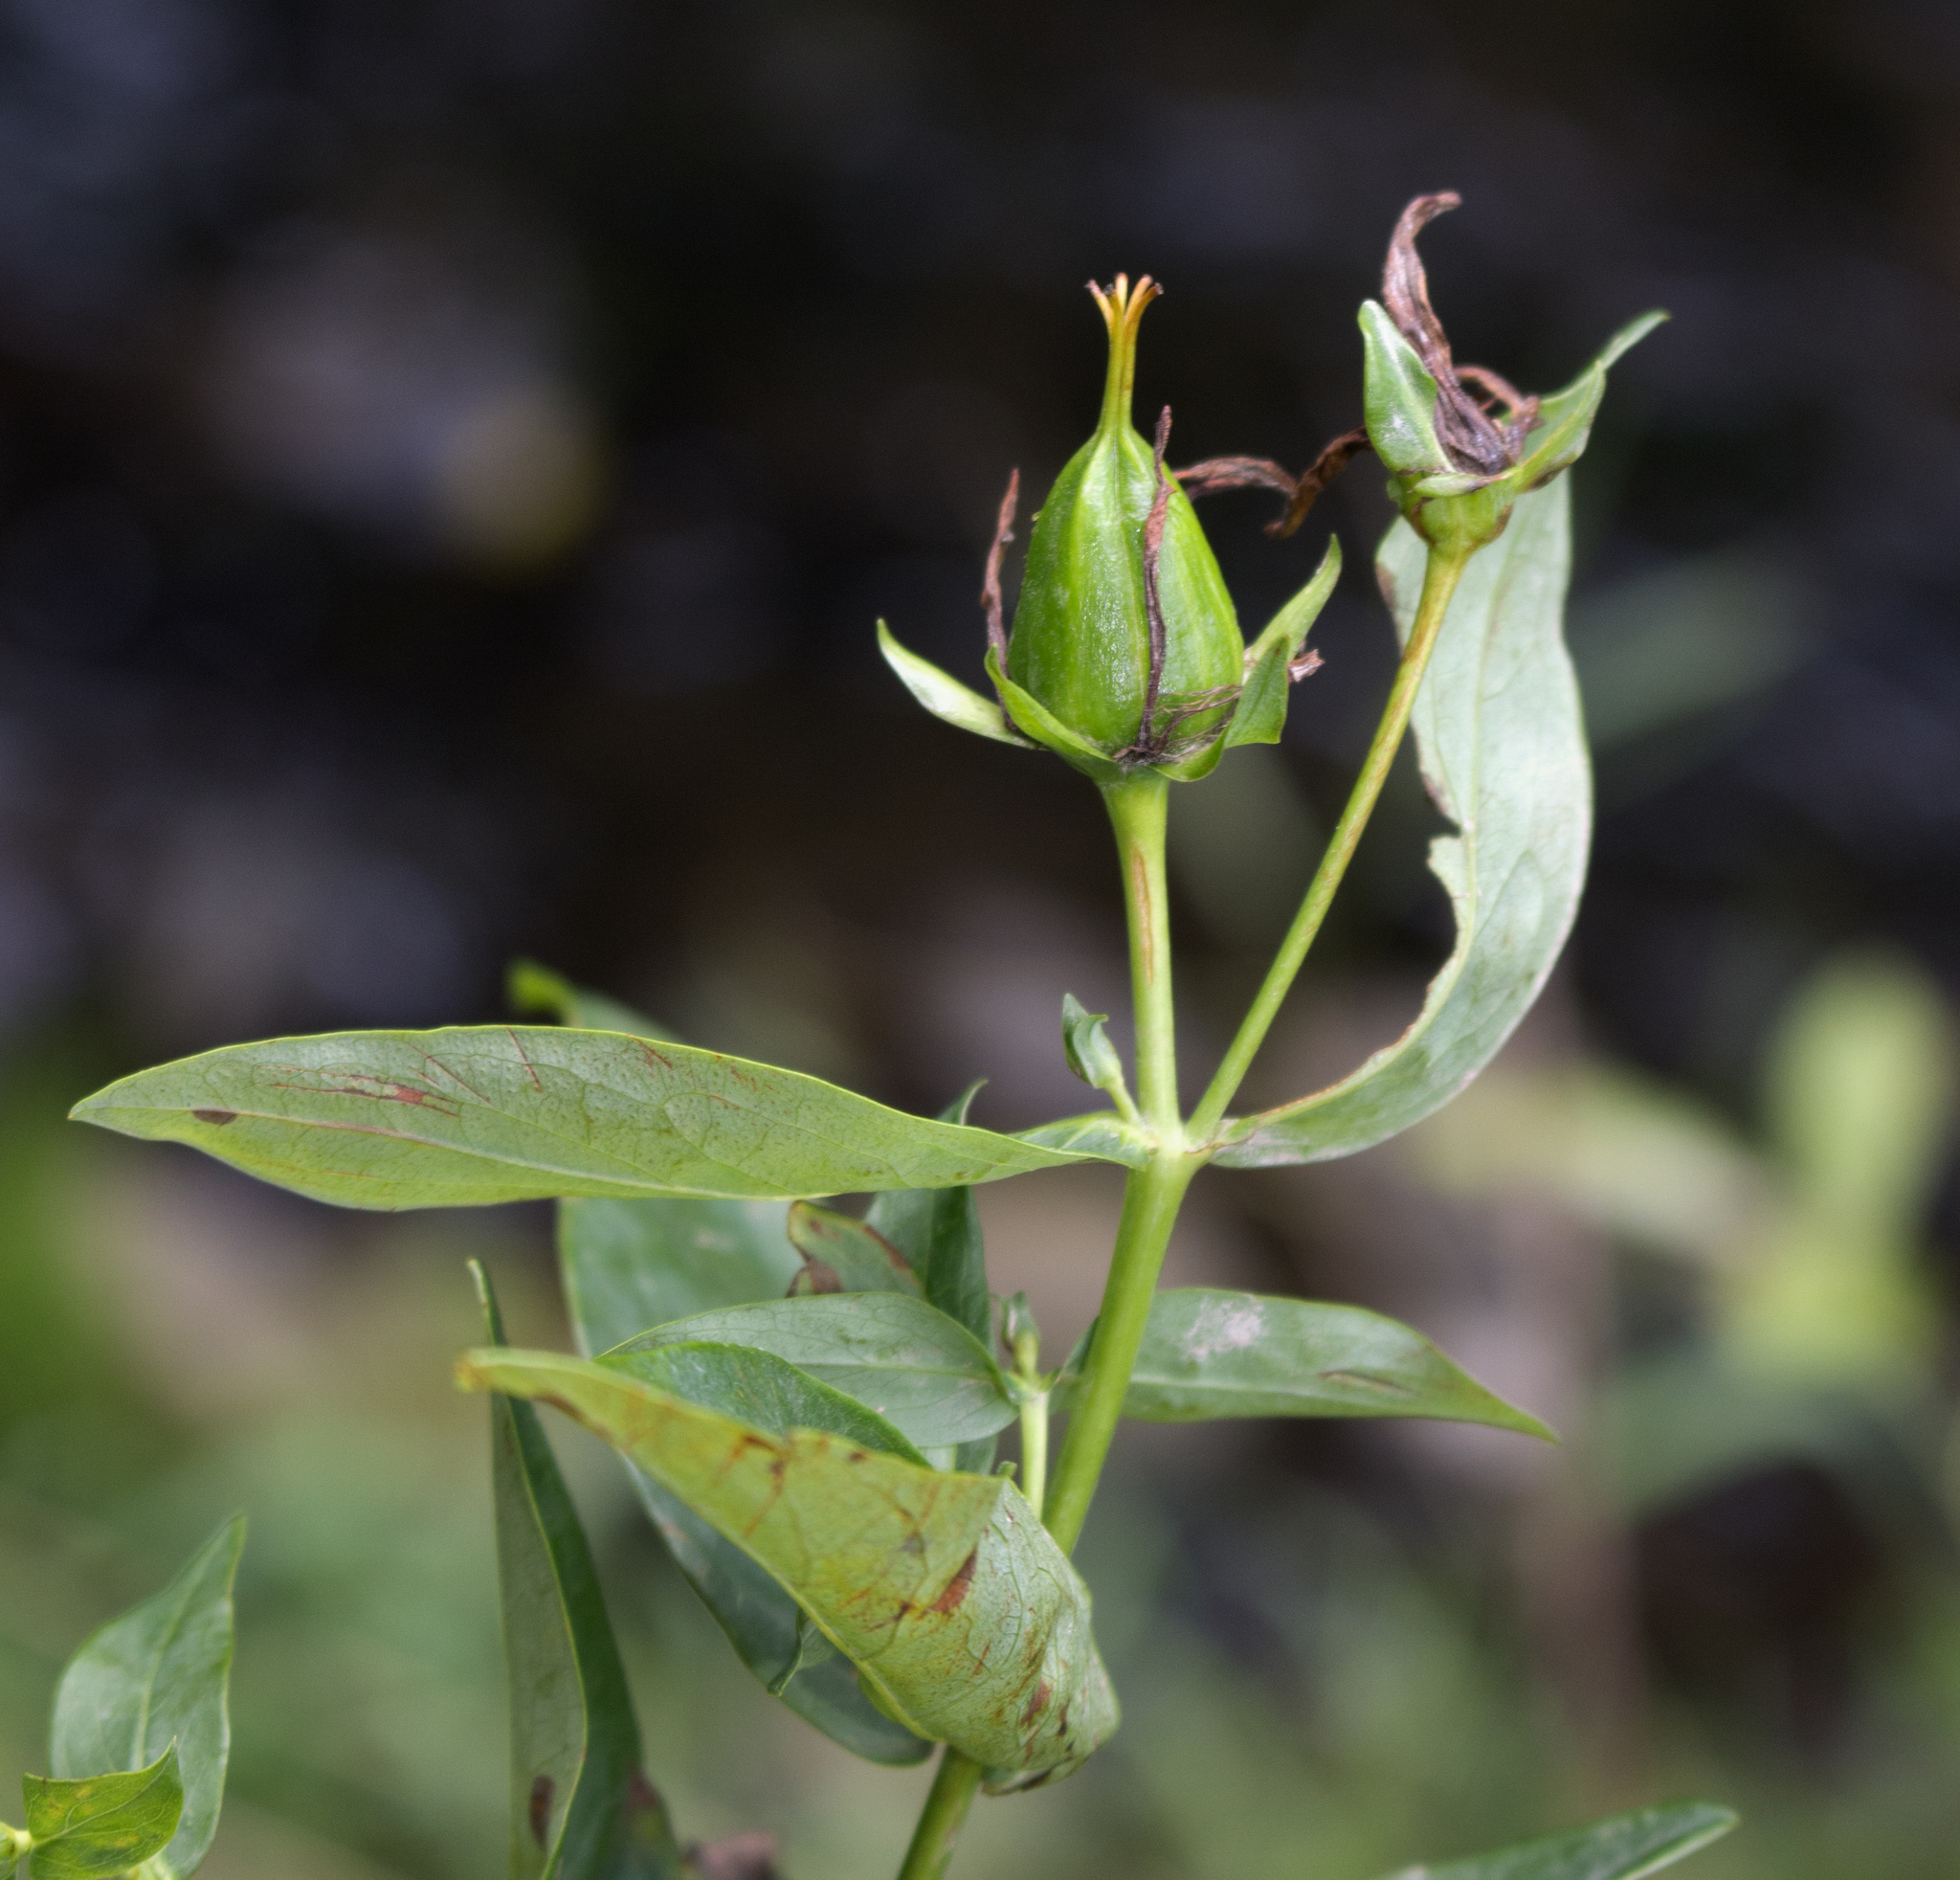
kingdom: Plantae
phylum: Tracheophyta
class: Magnoliopsida
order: Malpighiales
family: Hypericaceae
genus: Hypericum
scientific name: Hypericum ascyron
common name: Giant st. john's-wort
